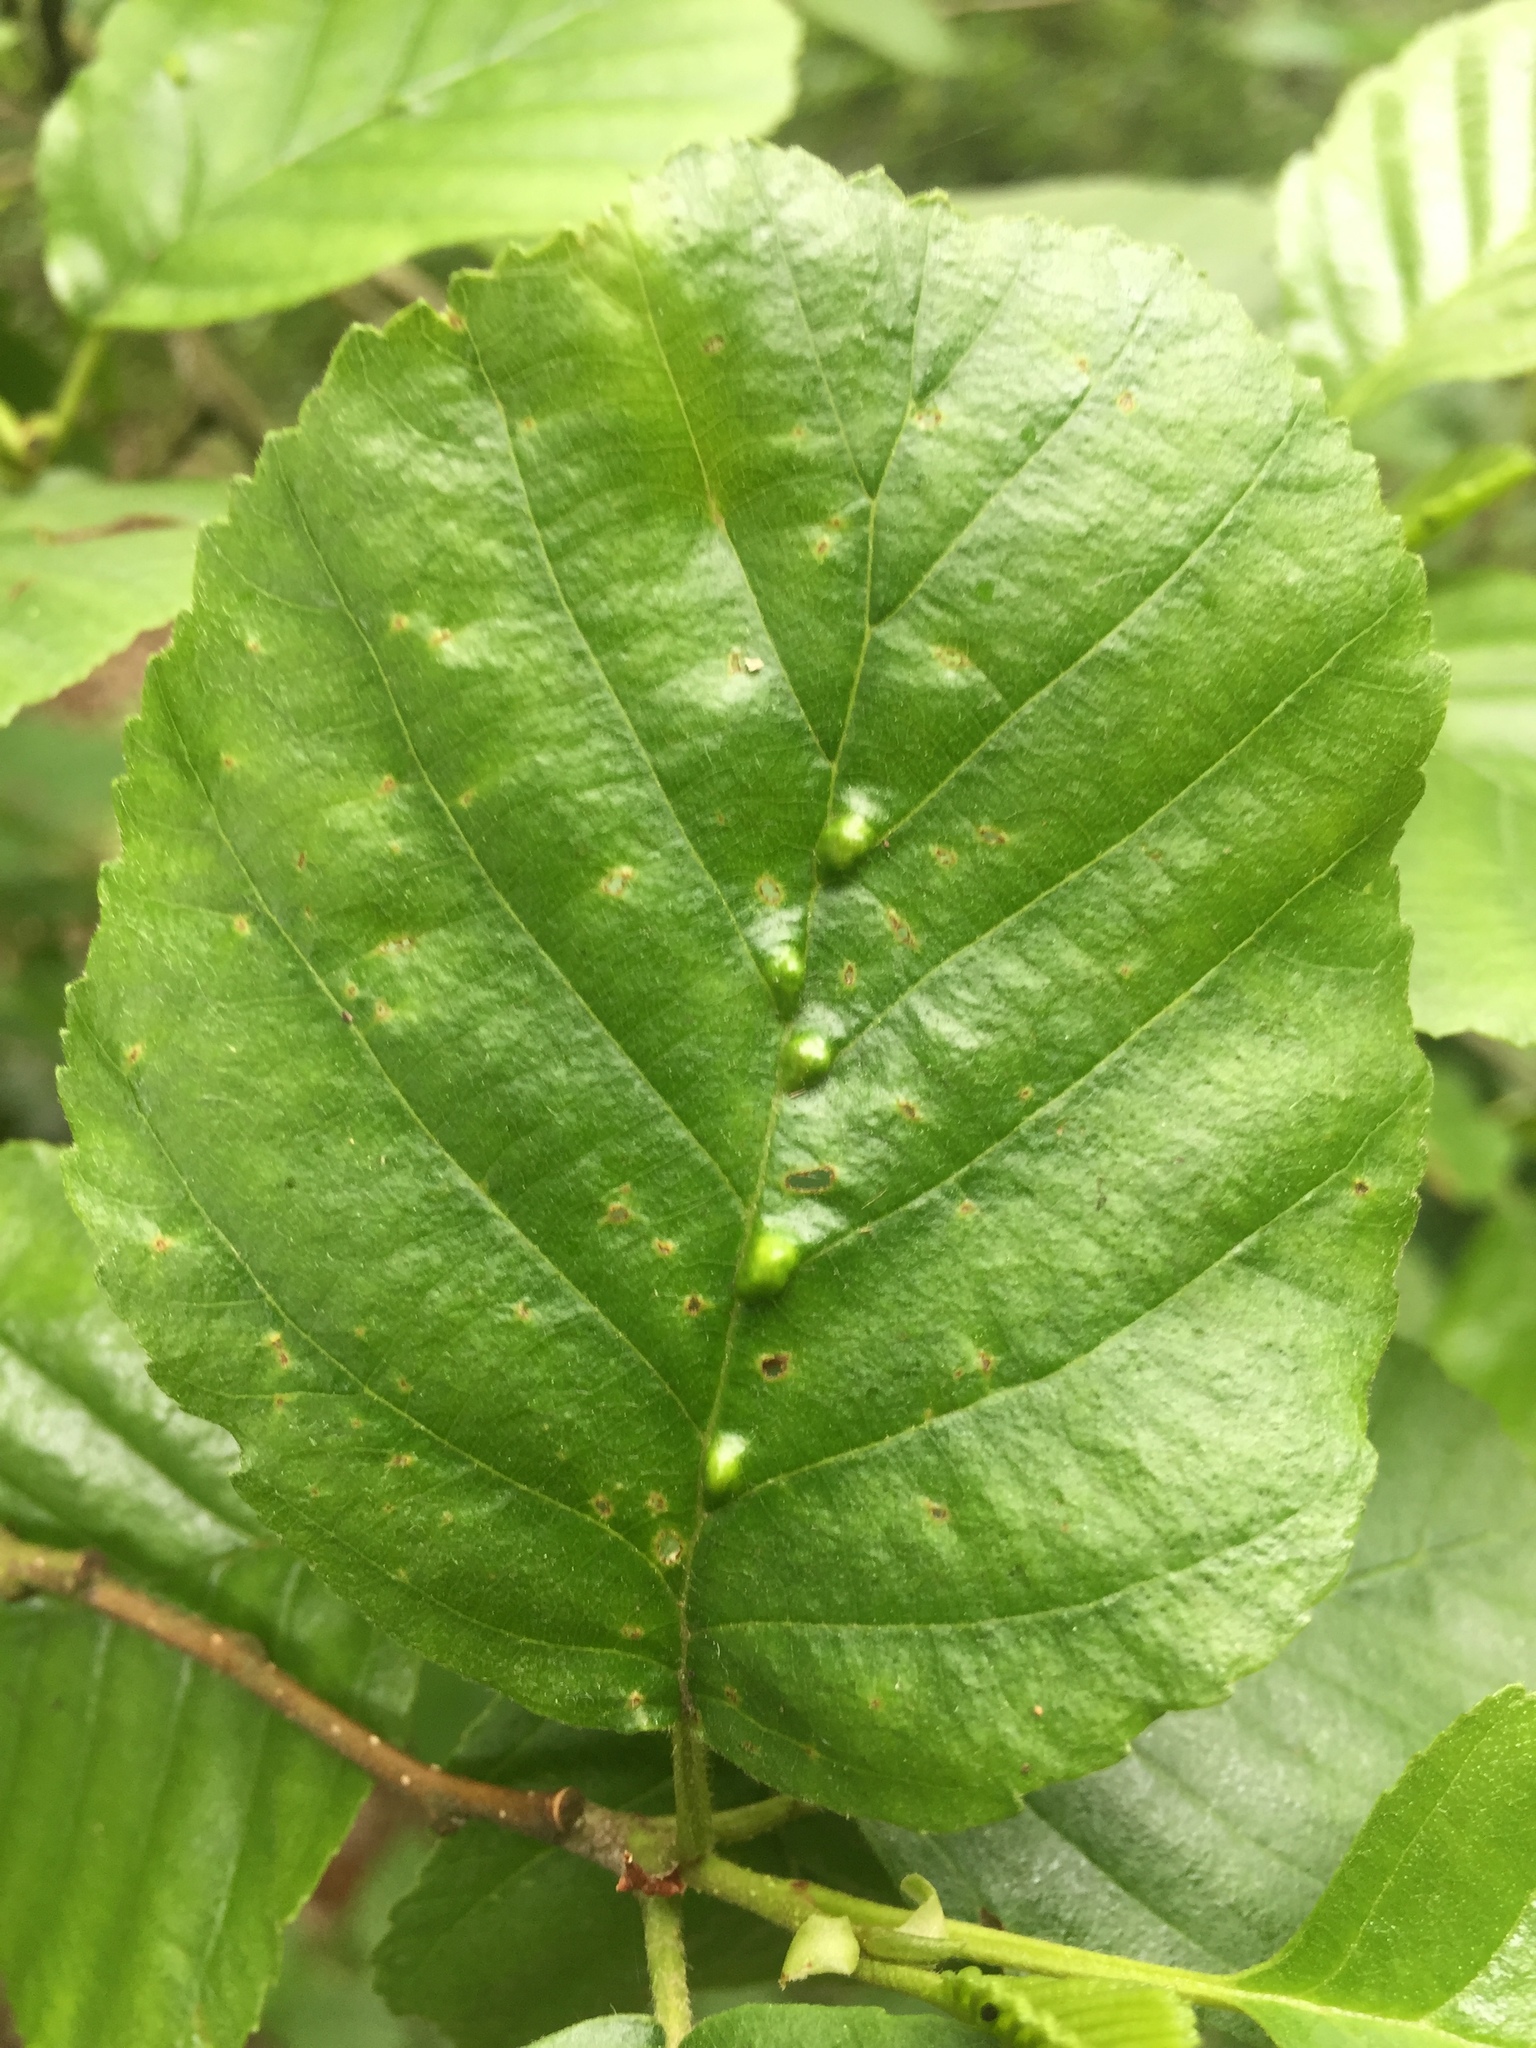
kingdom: Animalia
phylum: Arthropoda
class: Arachnida
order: Trombidiformes
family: Eriophyidae
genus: Eriophyes
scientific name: Eriophyes inangulis
